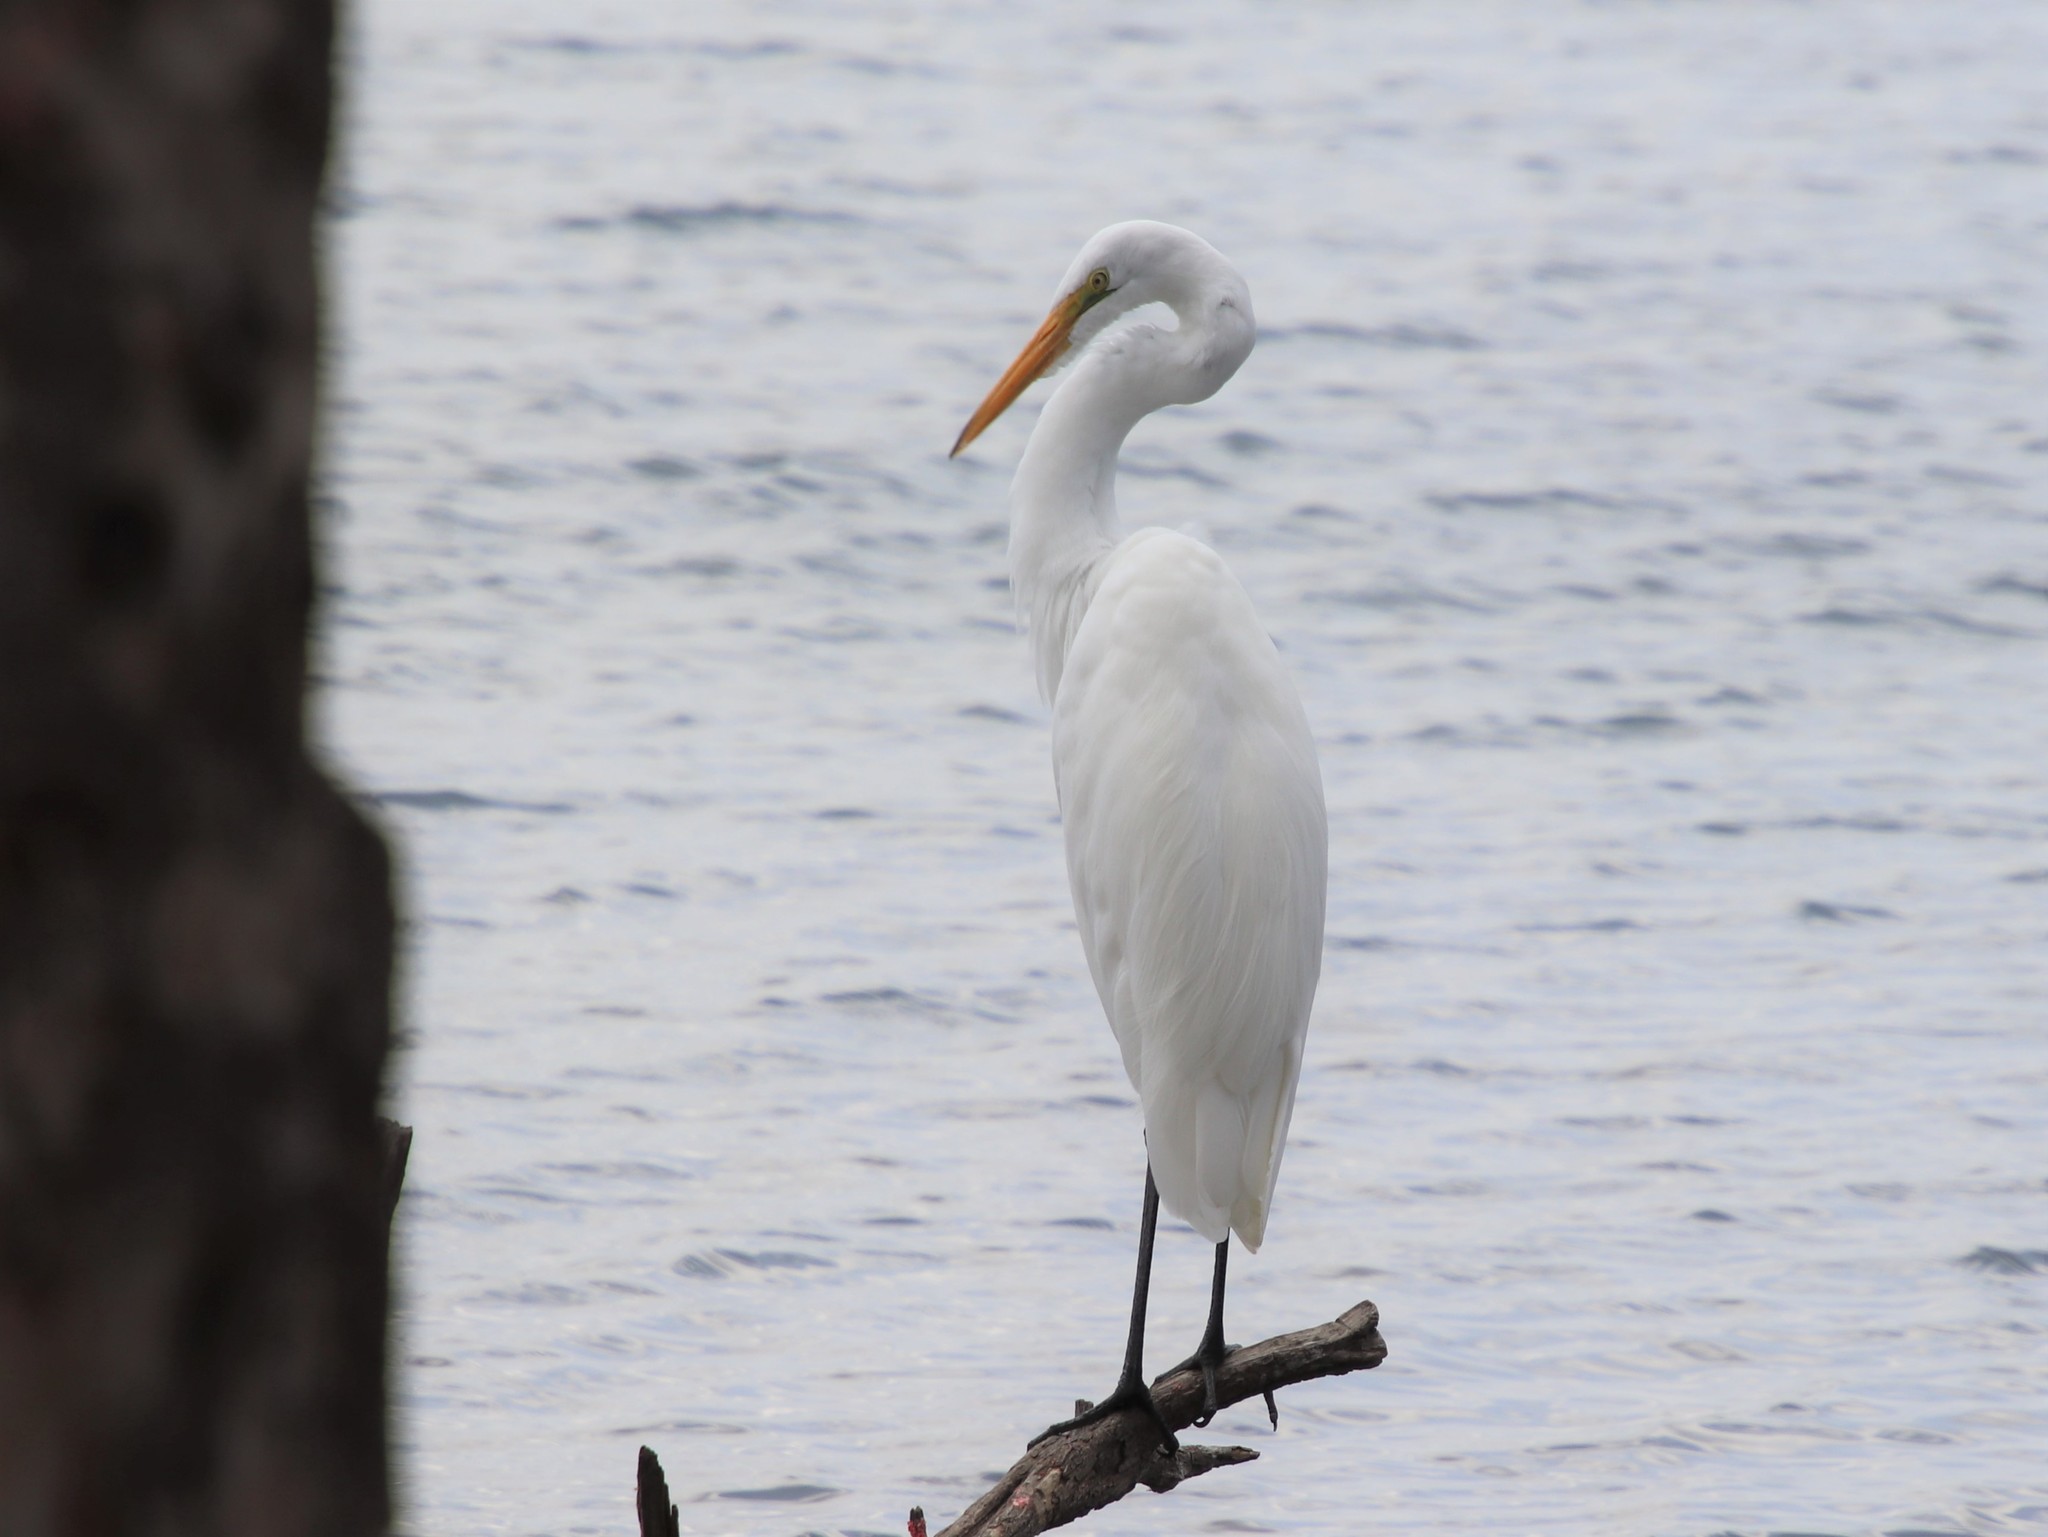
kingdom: Animalia
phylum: Chordata
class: Aves
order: Pelecaniformes
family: Ardeidae
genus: Ardea
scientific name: Ardea alba
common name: Great egret
